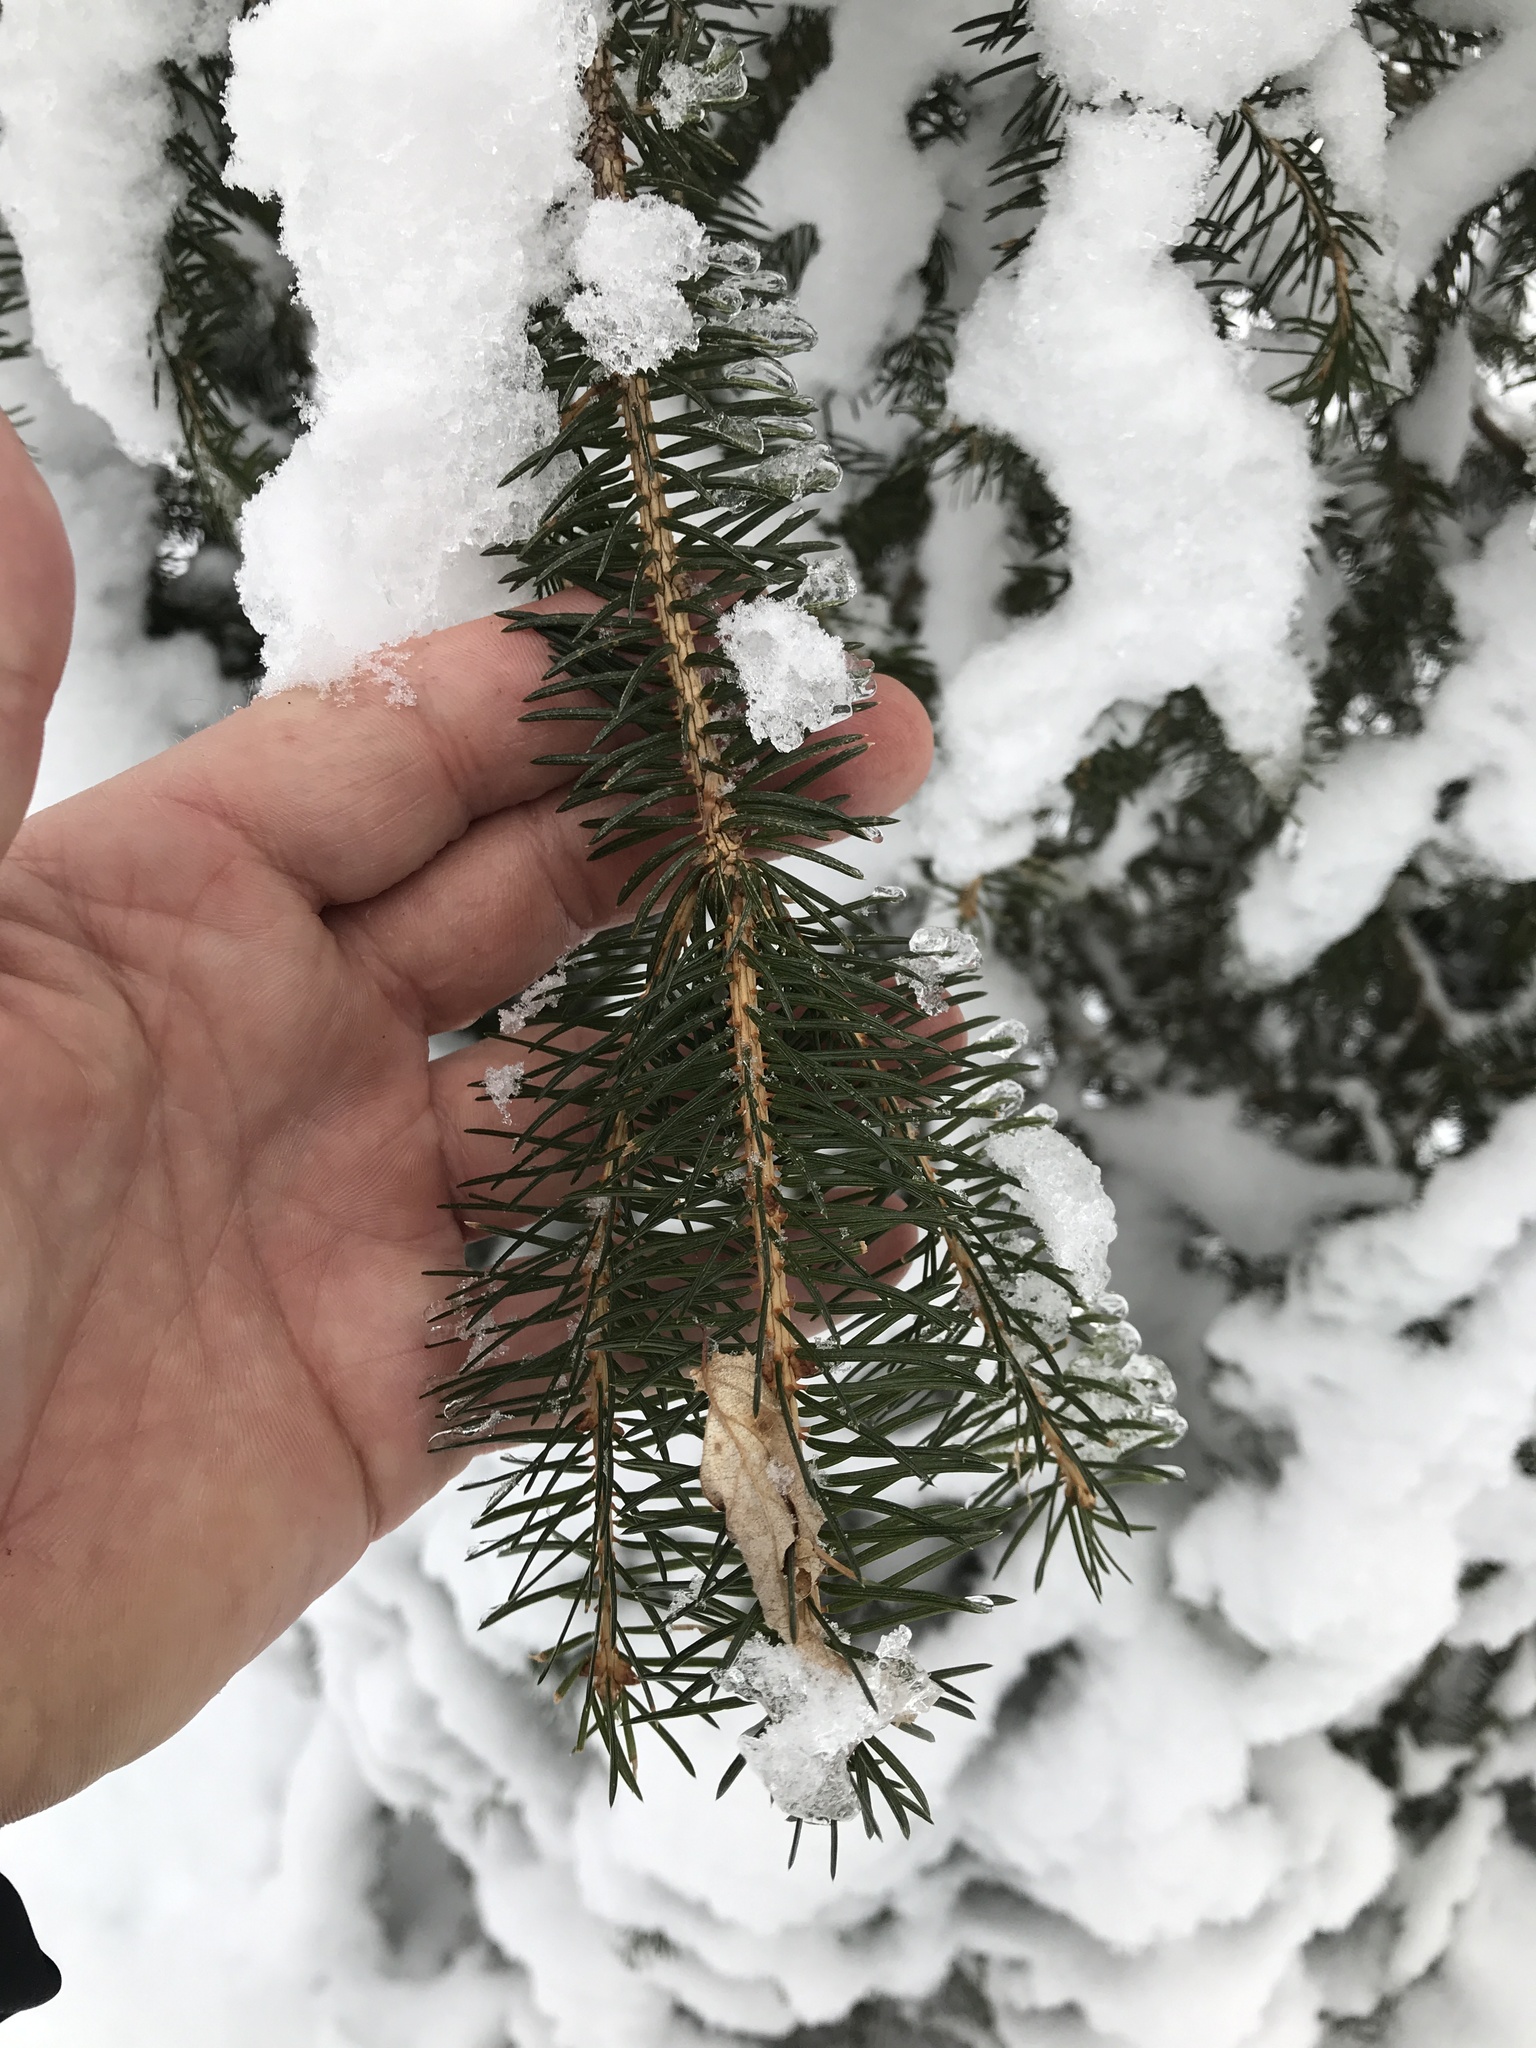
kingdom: Plantae
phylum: Tracheophyta
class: Pinopsida
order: Pinales
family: Pinaceae
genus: Picea
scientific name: Picea rubens
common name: Red spruce
